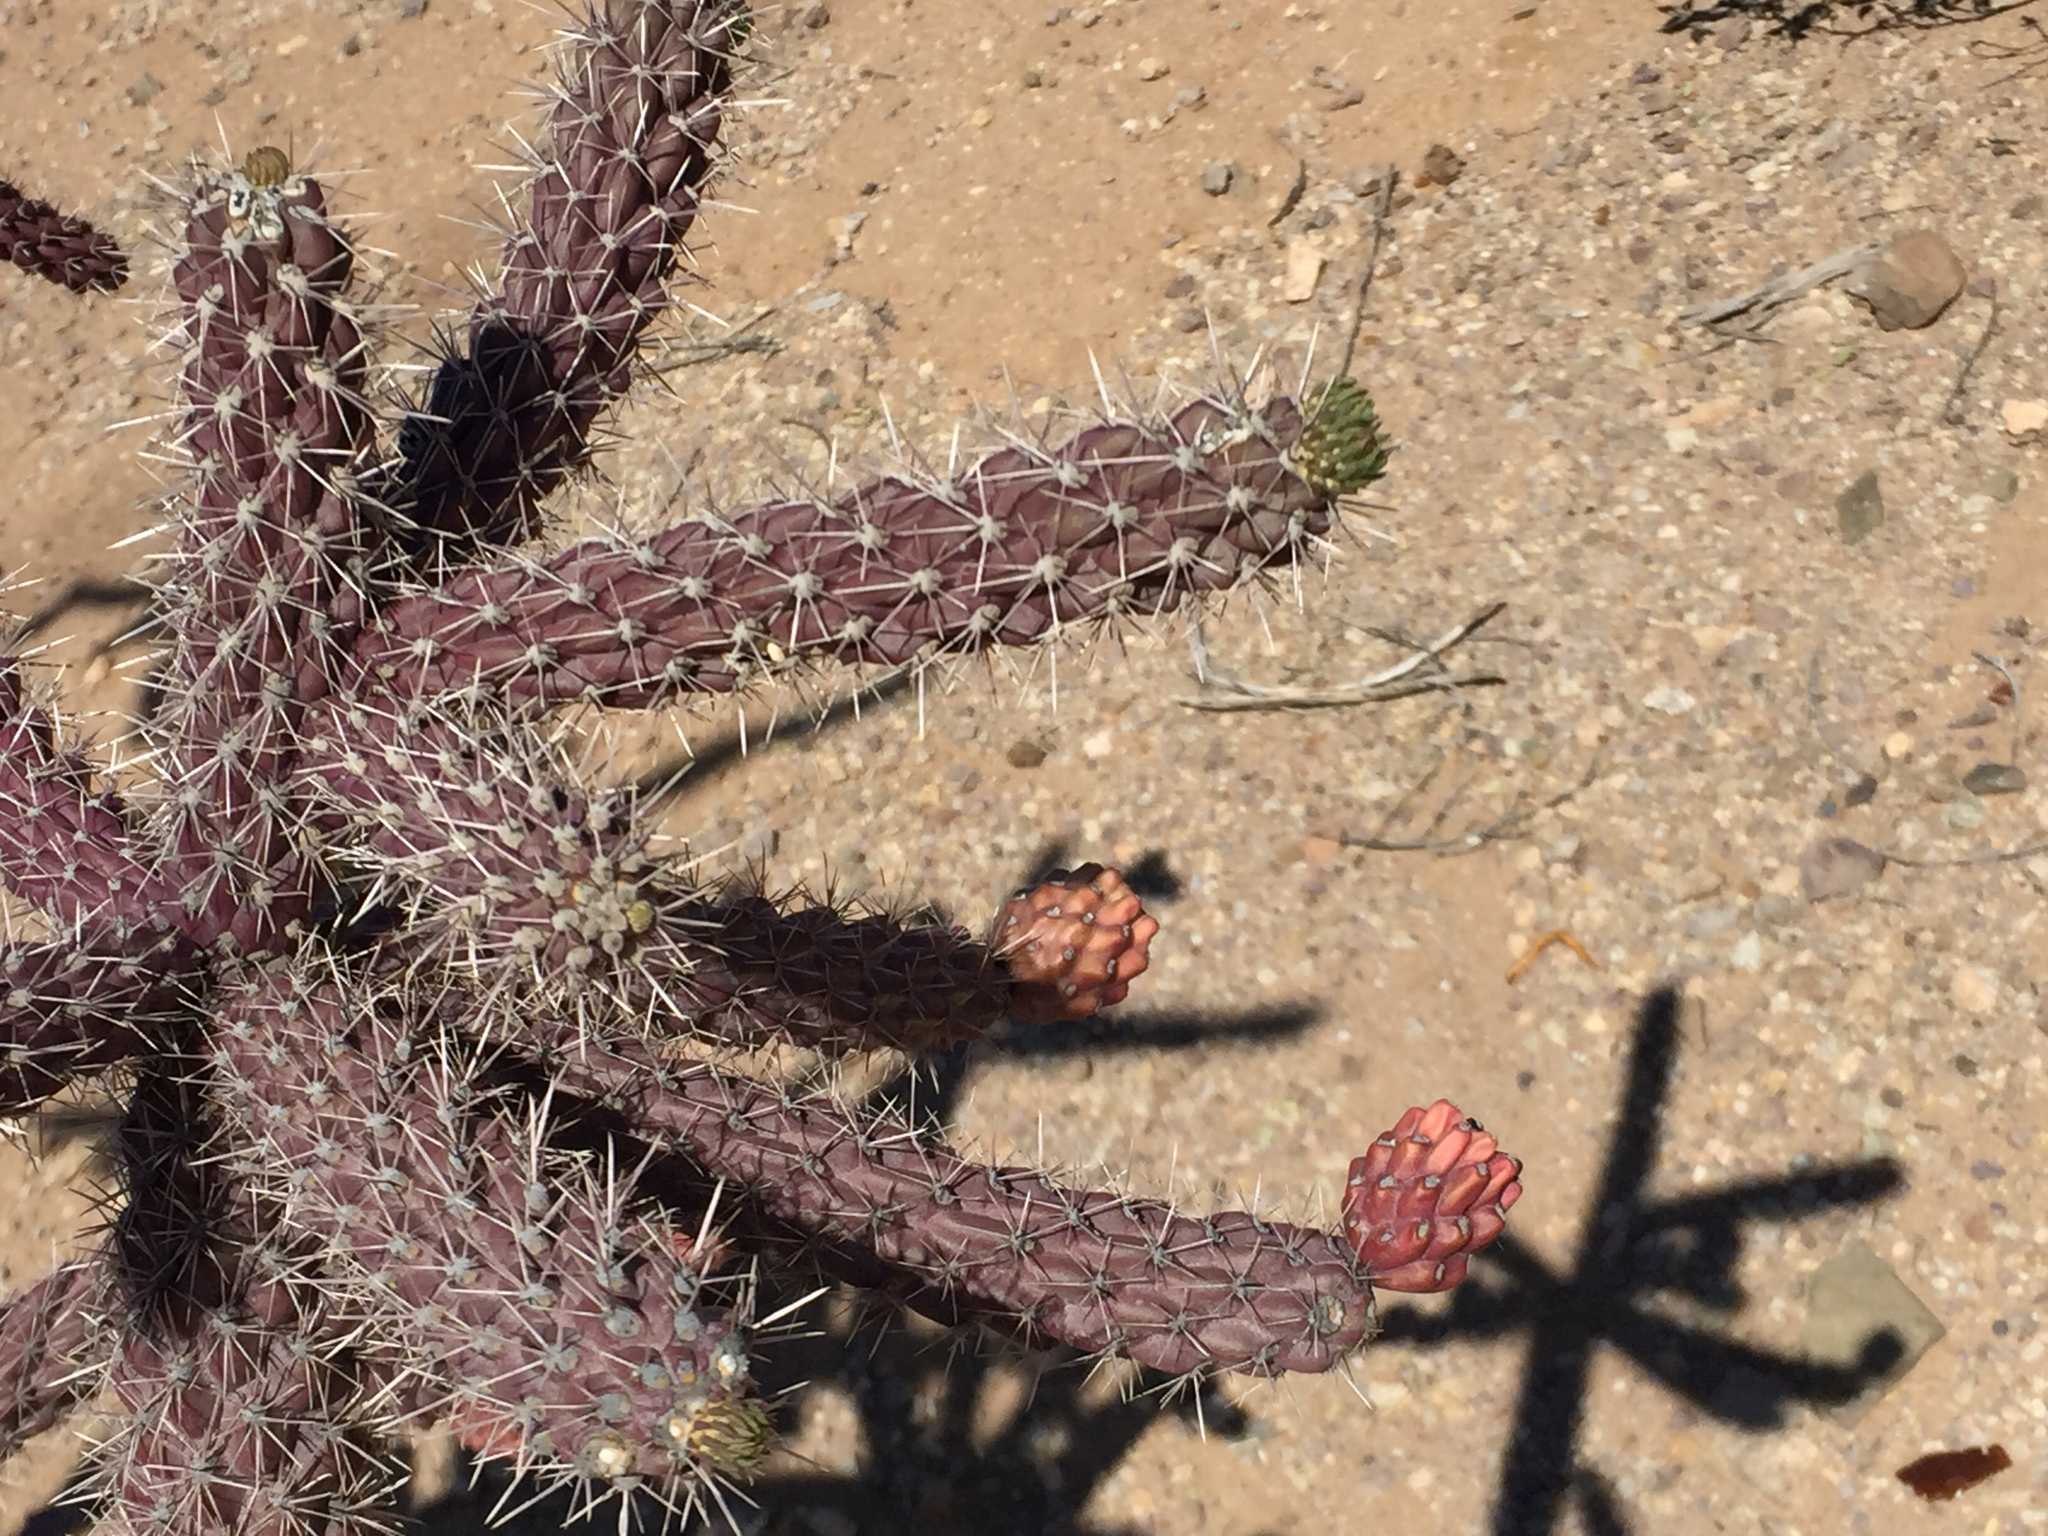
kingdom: Plantae
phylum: Tracheophyta
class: Magnoliopsida
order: Caryophyllales
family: Cactaceae
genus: Cylindropuntia
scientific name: Cylindropuntia imbricata
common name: Candelabrum cactus
